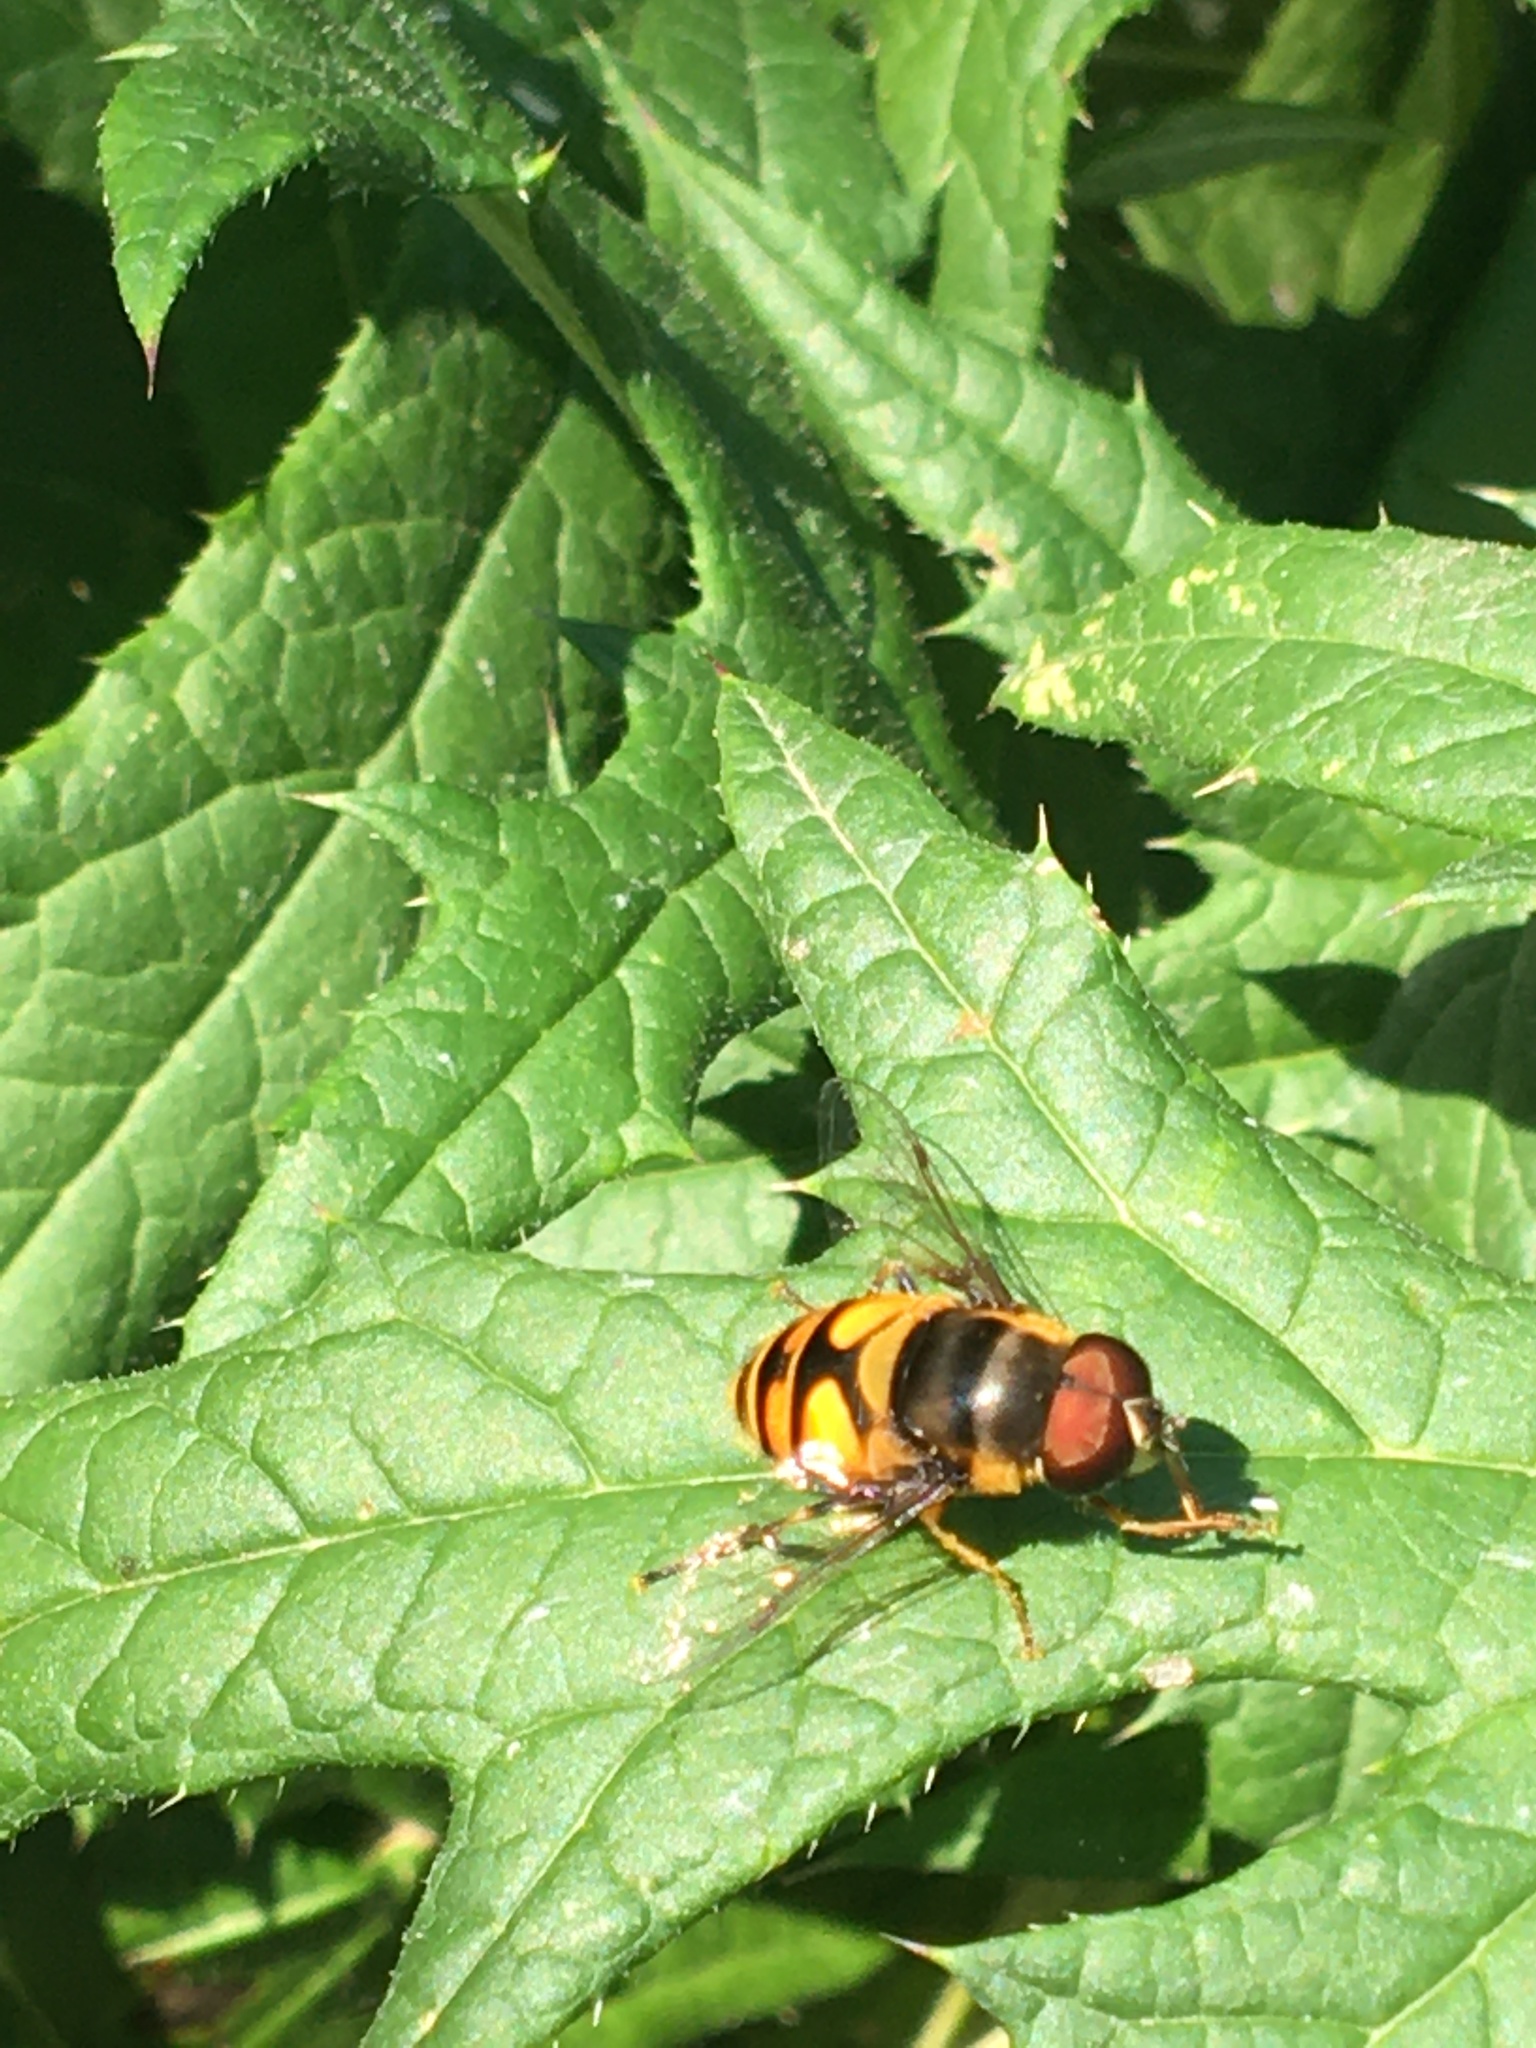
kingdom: Animalia
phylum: Arthropoda
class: Insecta
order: Diptera
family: Syrphidae
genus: Eristalis
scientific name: Eristalis transversa
